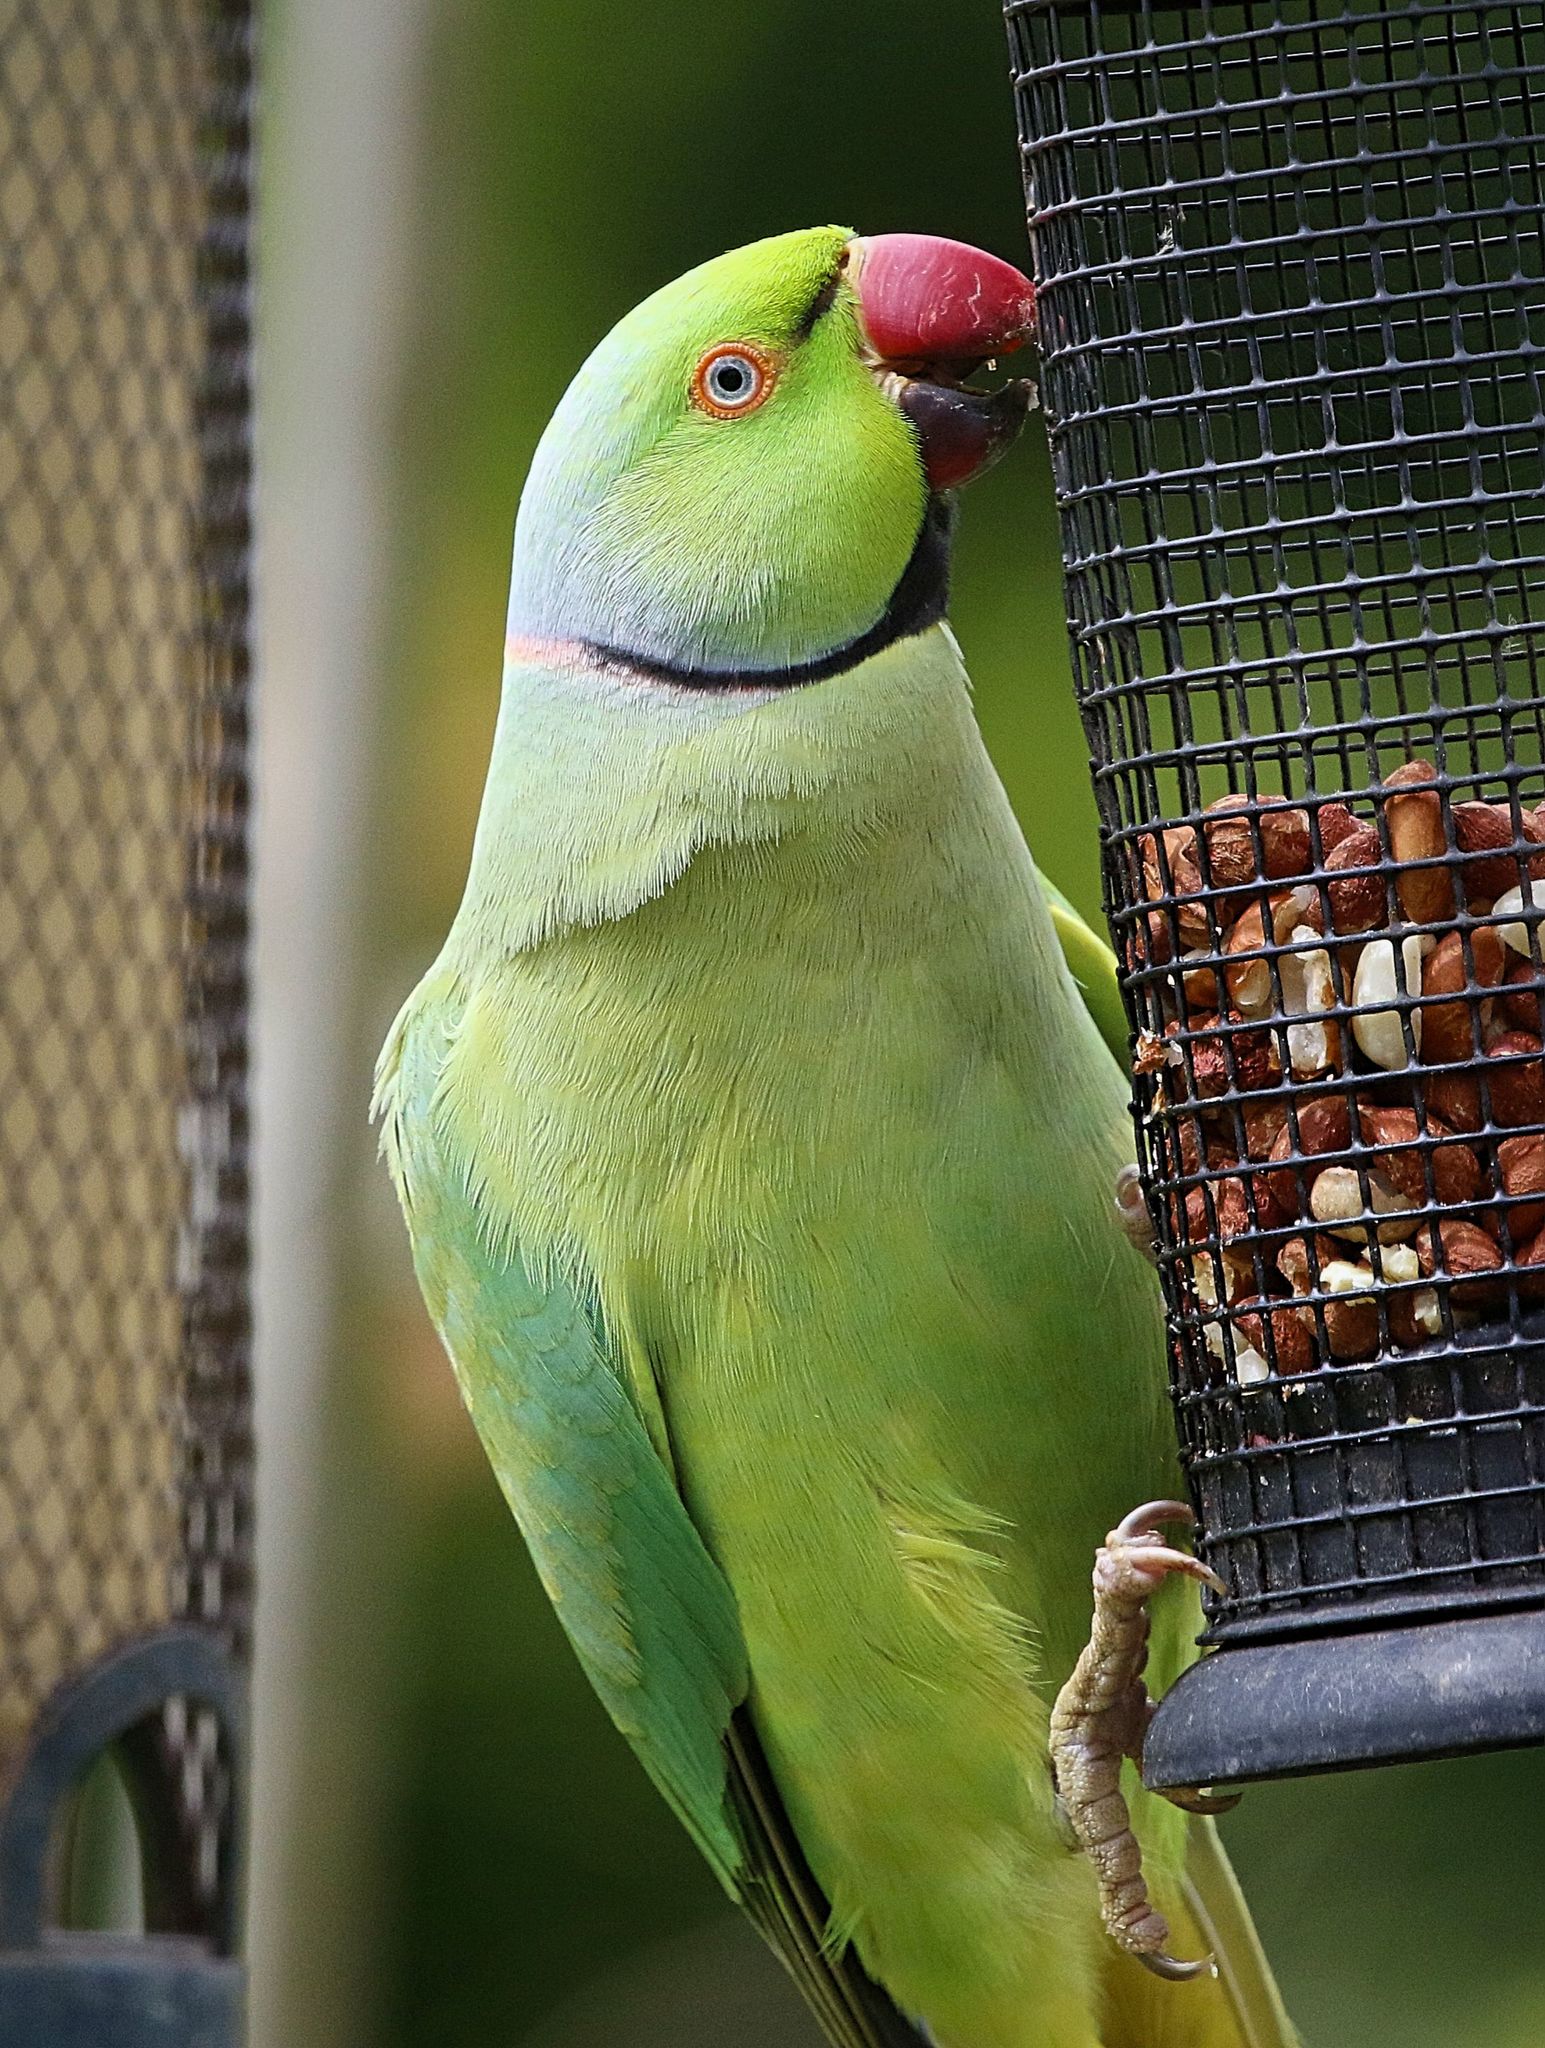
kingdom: Animalia
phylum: Chordata
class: Aves
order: Psittaciformes
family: Psittacidae
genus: Psittacula
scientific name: Psittacula krameri
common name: Rose-ringed parakeet
